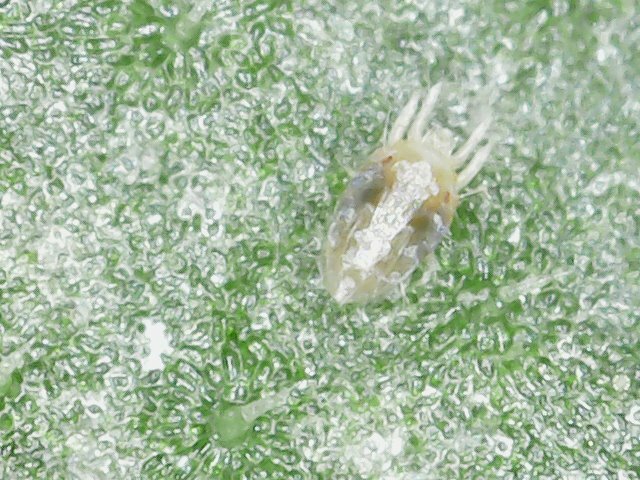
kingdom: Animalia
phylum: Arthropoda
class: Arachnida
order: Trombidiformes
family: Tetranychidae
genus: Tetranychus
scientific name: Tetranychus urticae
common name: Carmine spider mite
